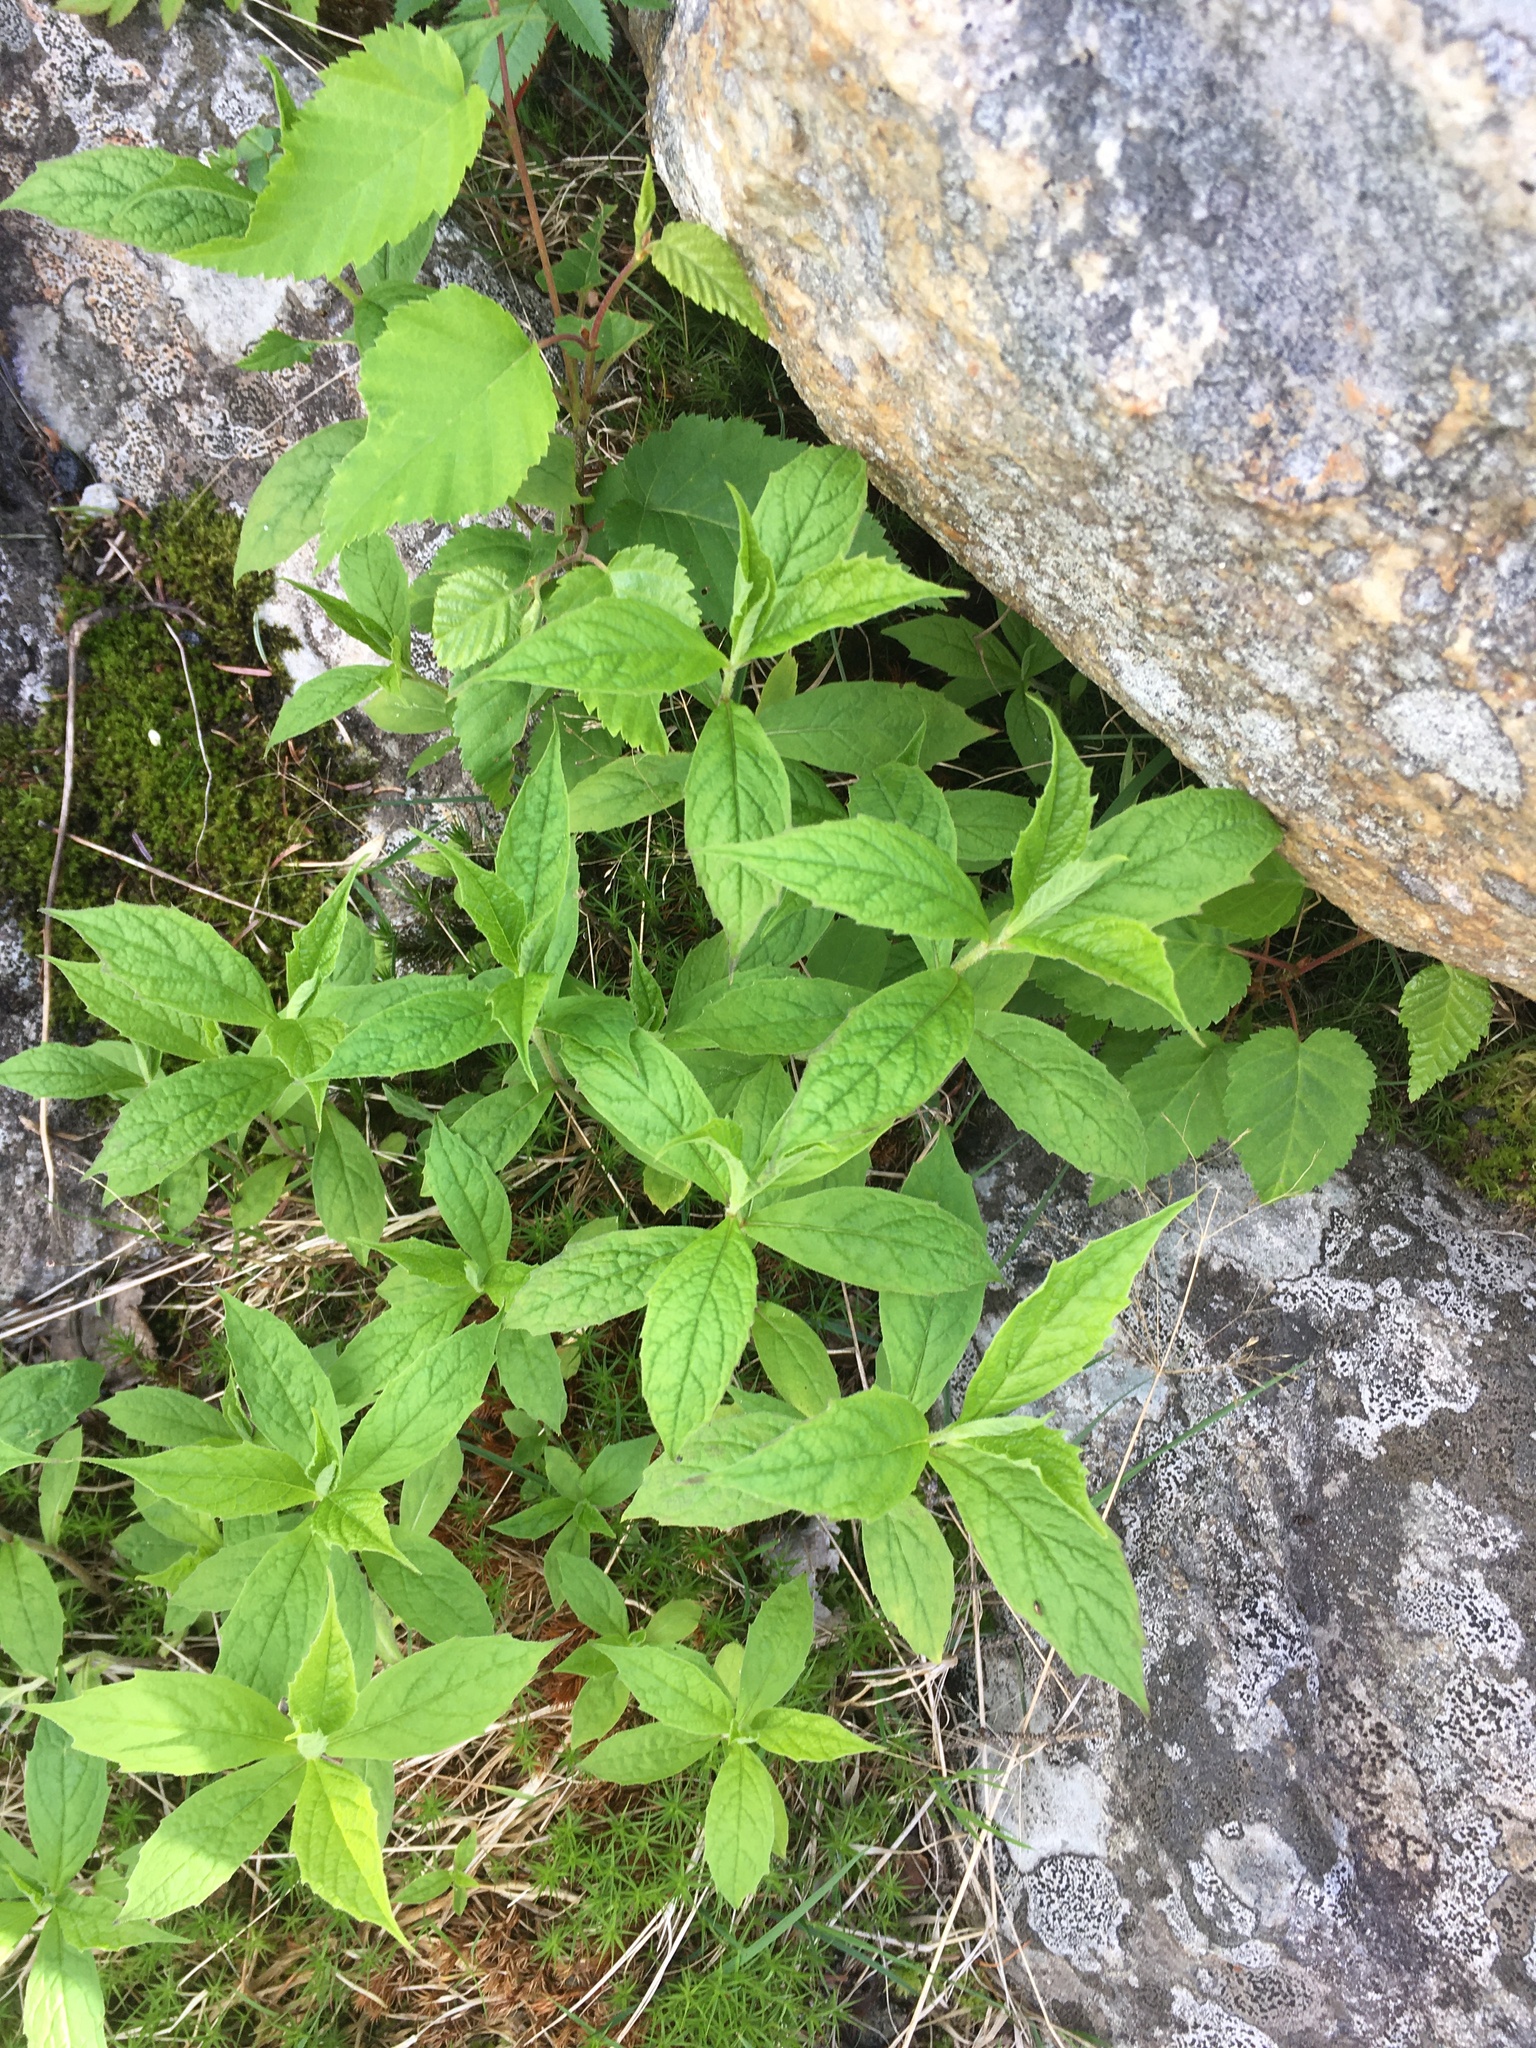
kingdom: Plantae
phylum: Tracheophyta
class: Magnoliopsida
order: Asterales
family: Asteraceae
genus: Oclemena
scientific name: Oclemena acuminata
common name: Mountain aster
